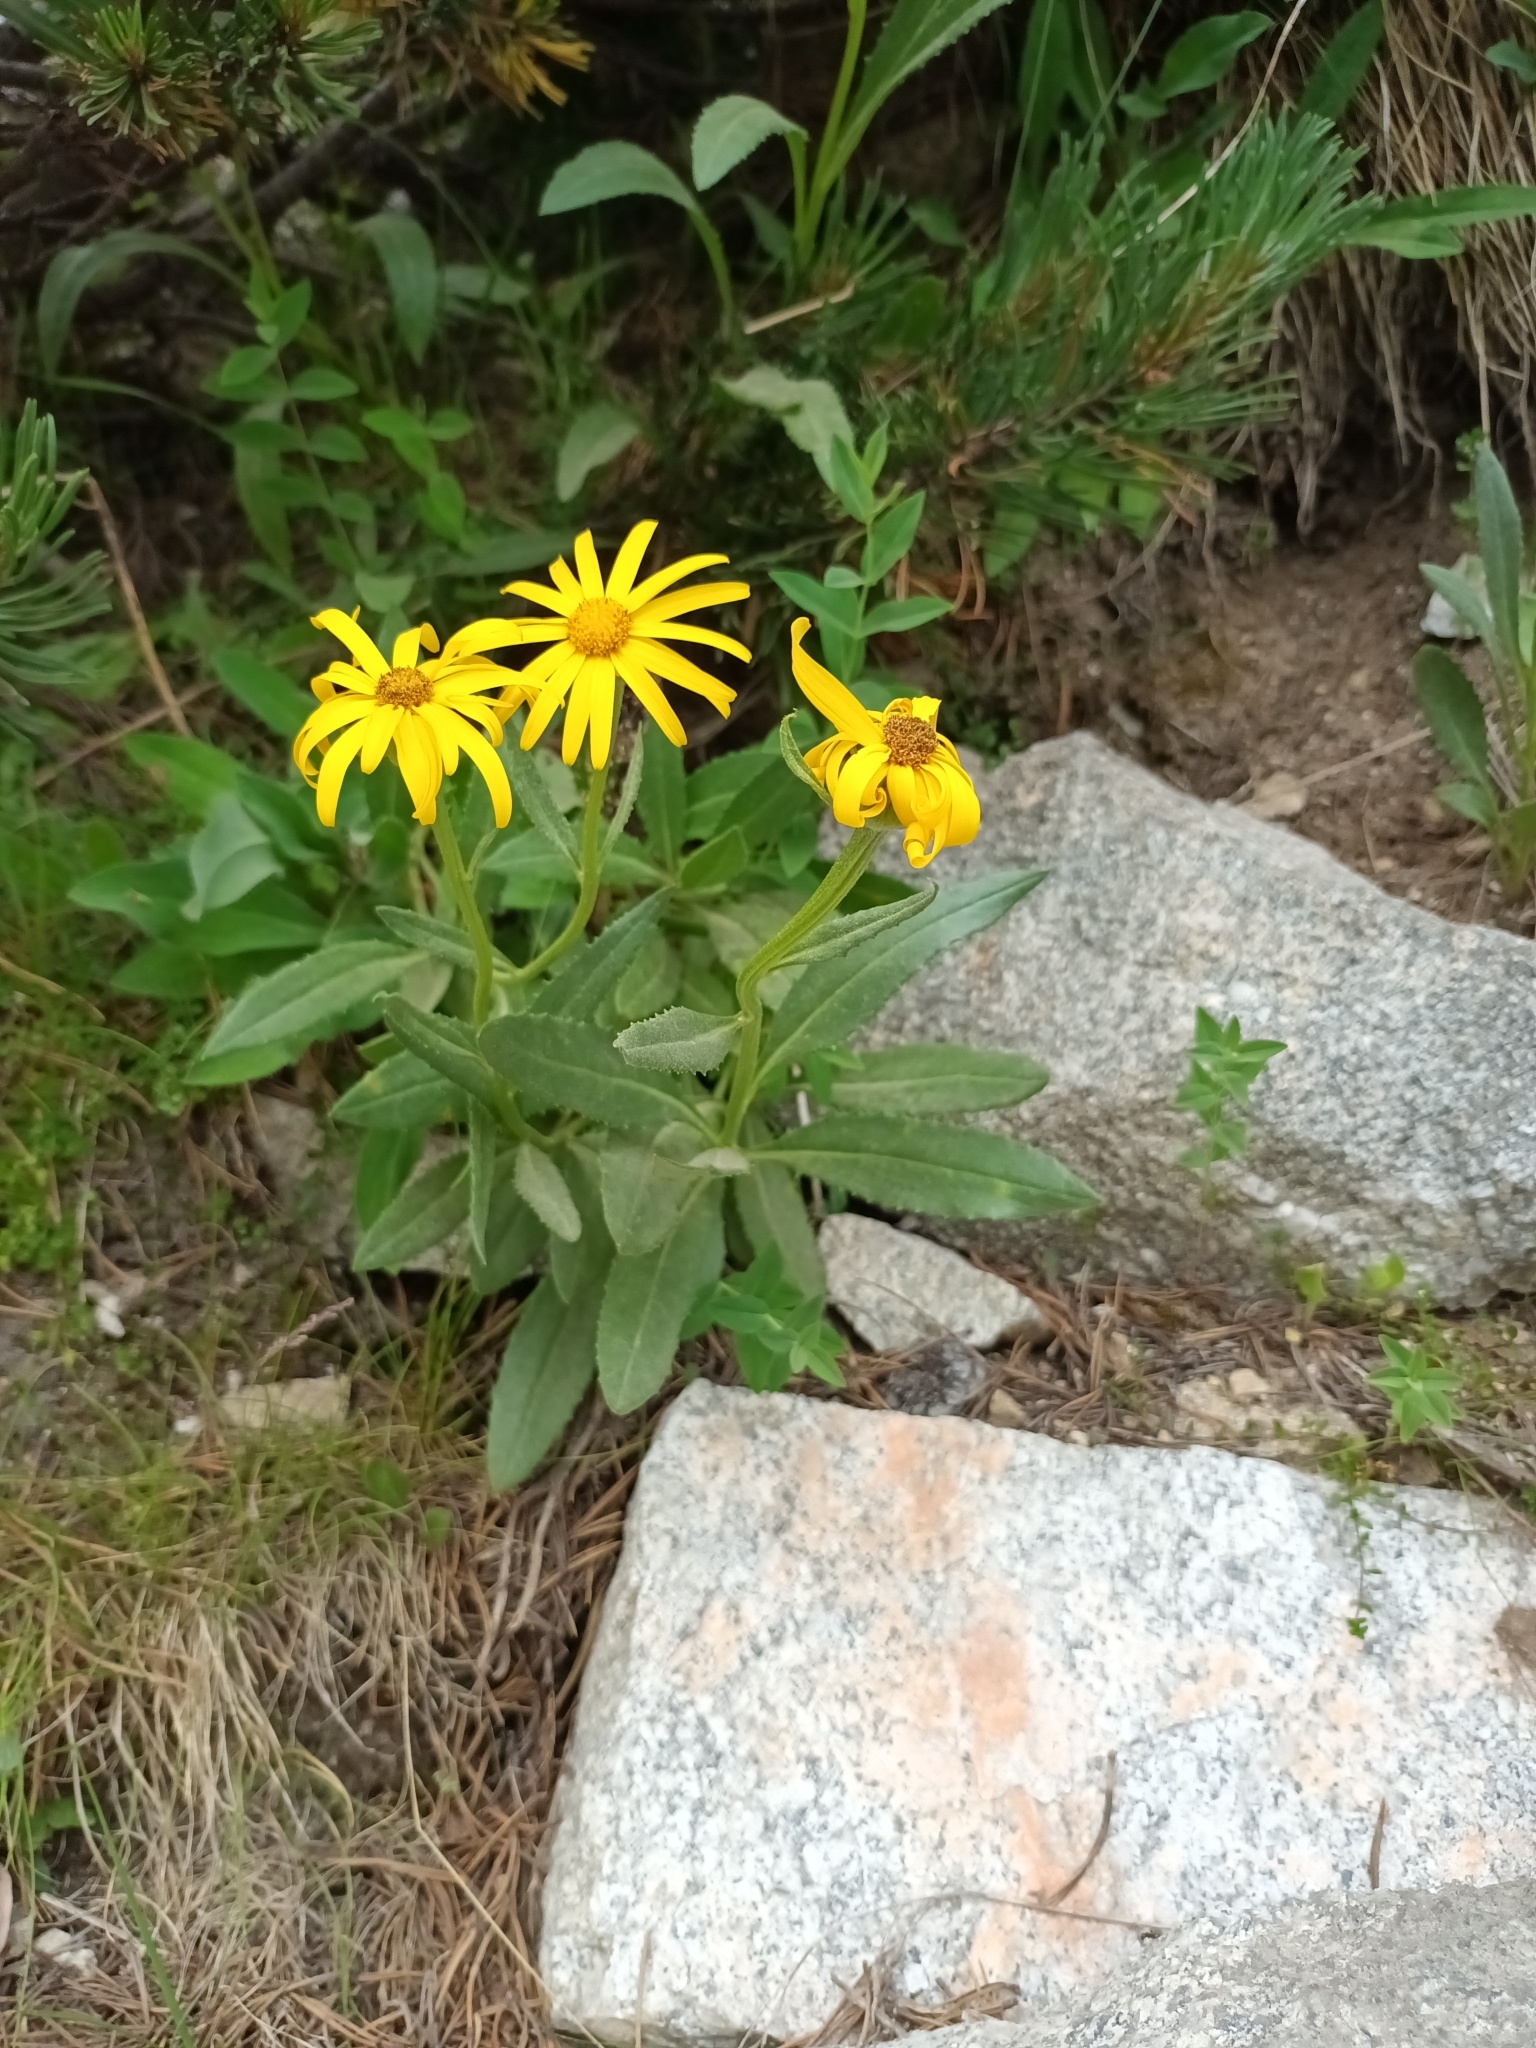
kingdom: Plantae
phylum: Tracheophyta
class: Magnoliopsida
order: Asterales
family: Asteraceae
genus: Senecio
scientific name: Senecio transylvanicus
